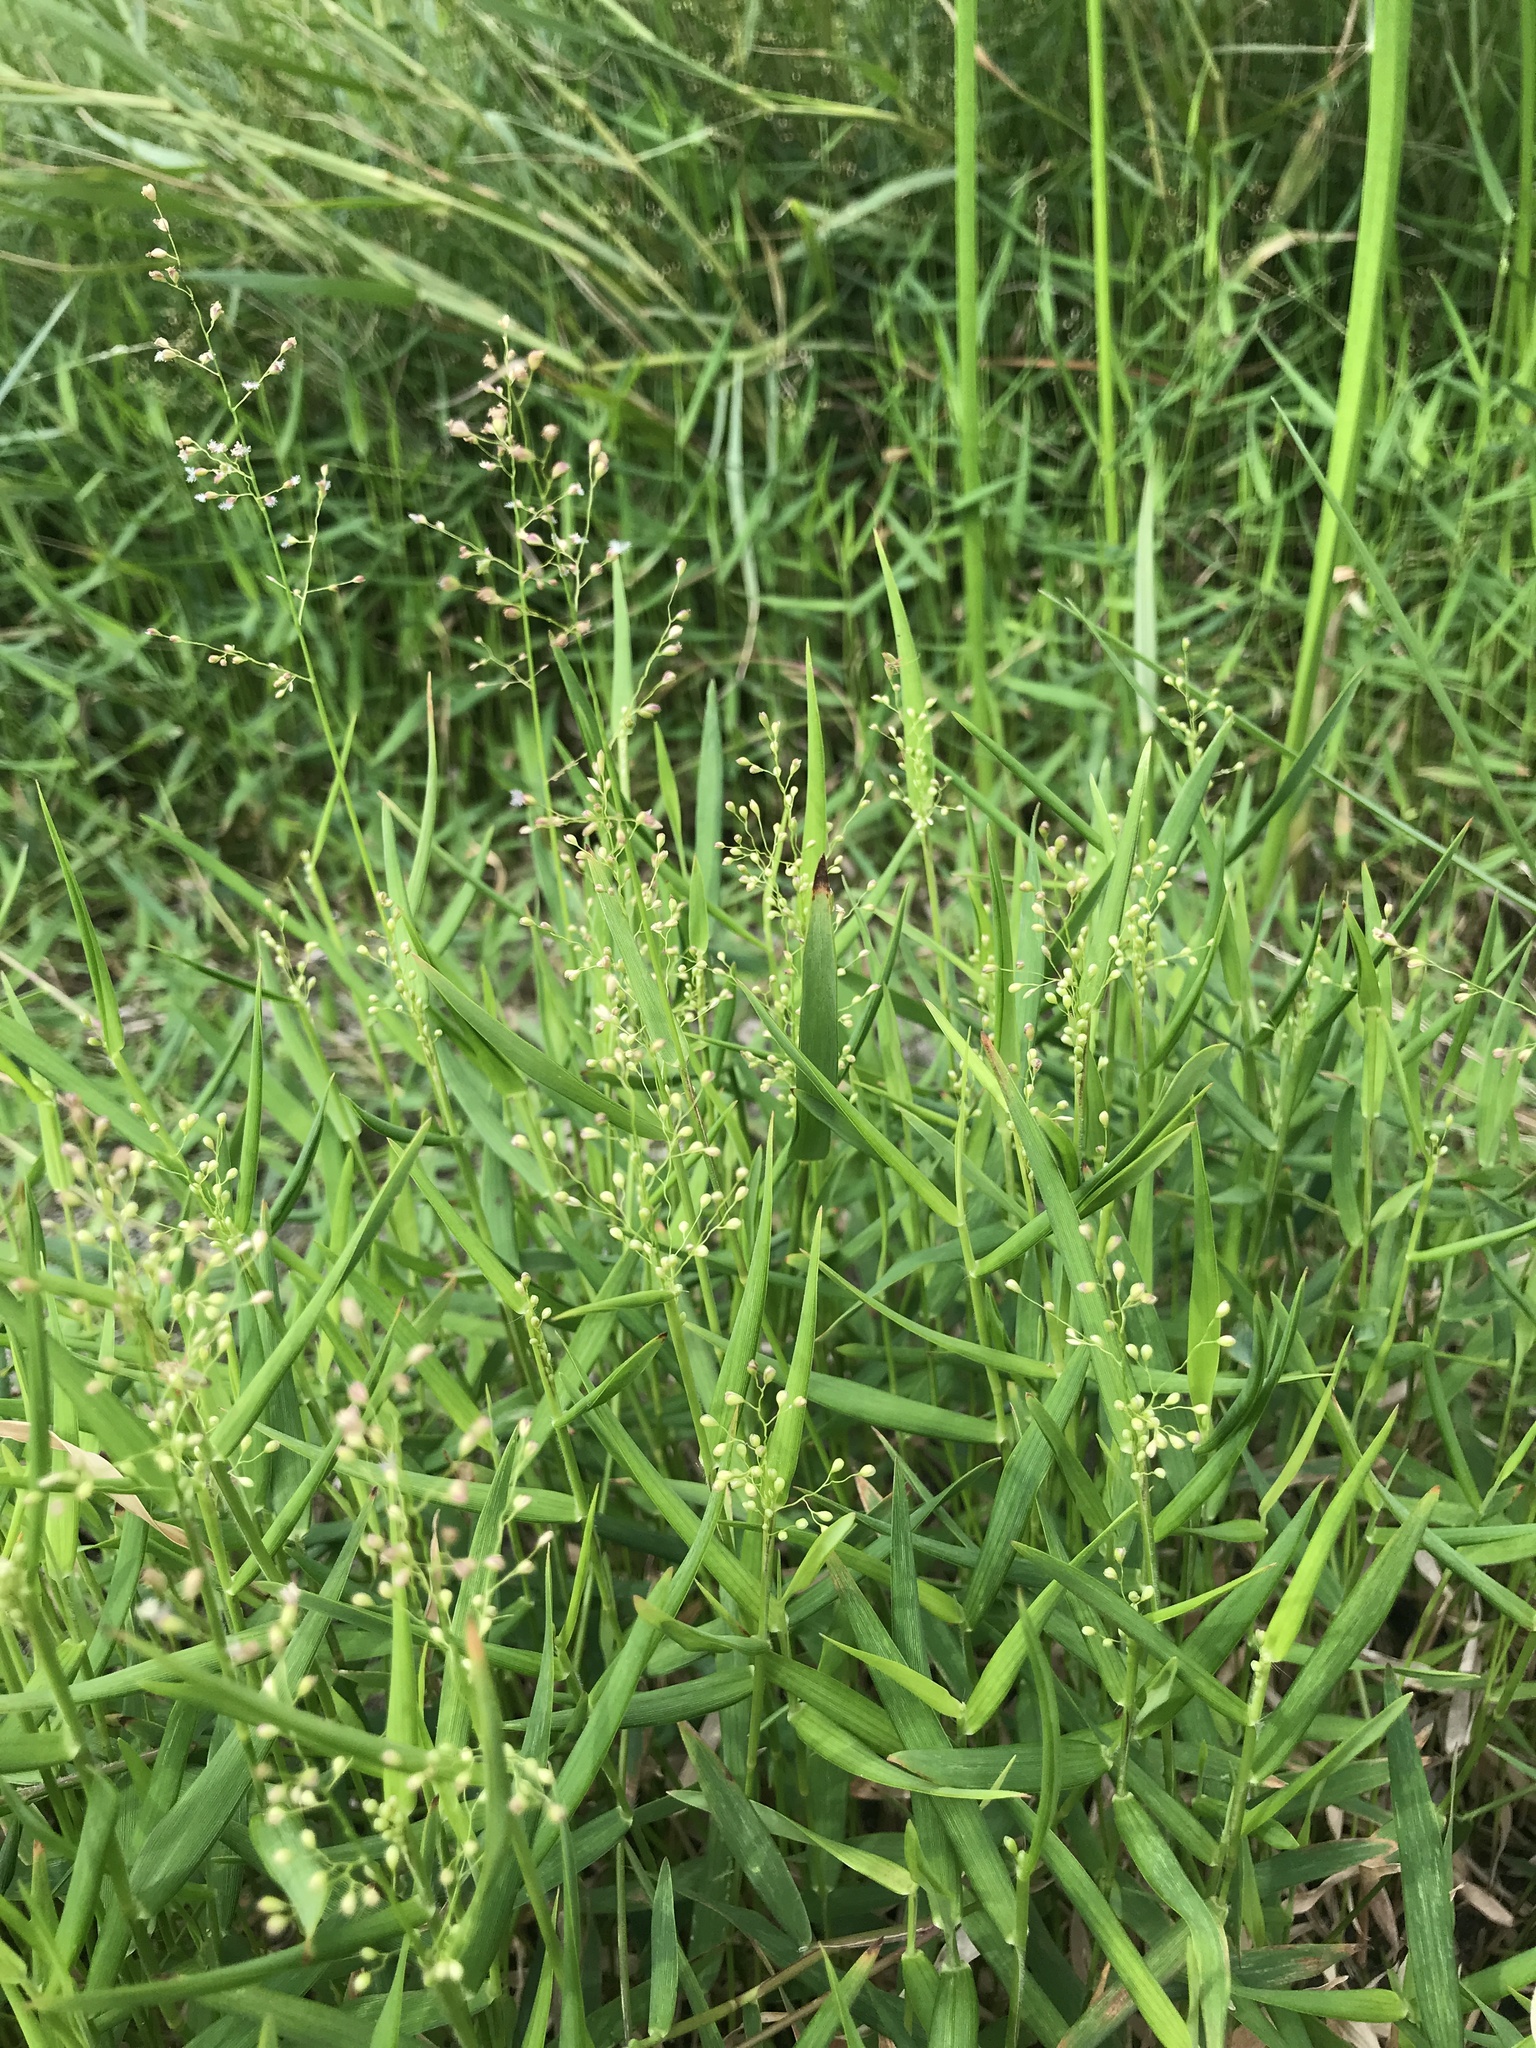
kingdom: Plantae
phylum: Tracheophyta
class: Liliopsida
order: Poales
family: Poaceae
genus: Isachne
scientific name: Isachne globosa
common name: Swamp millet
